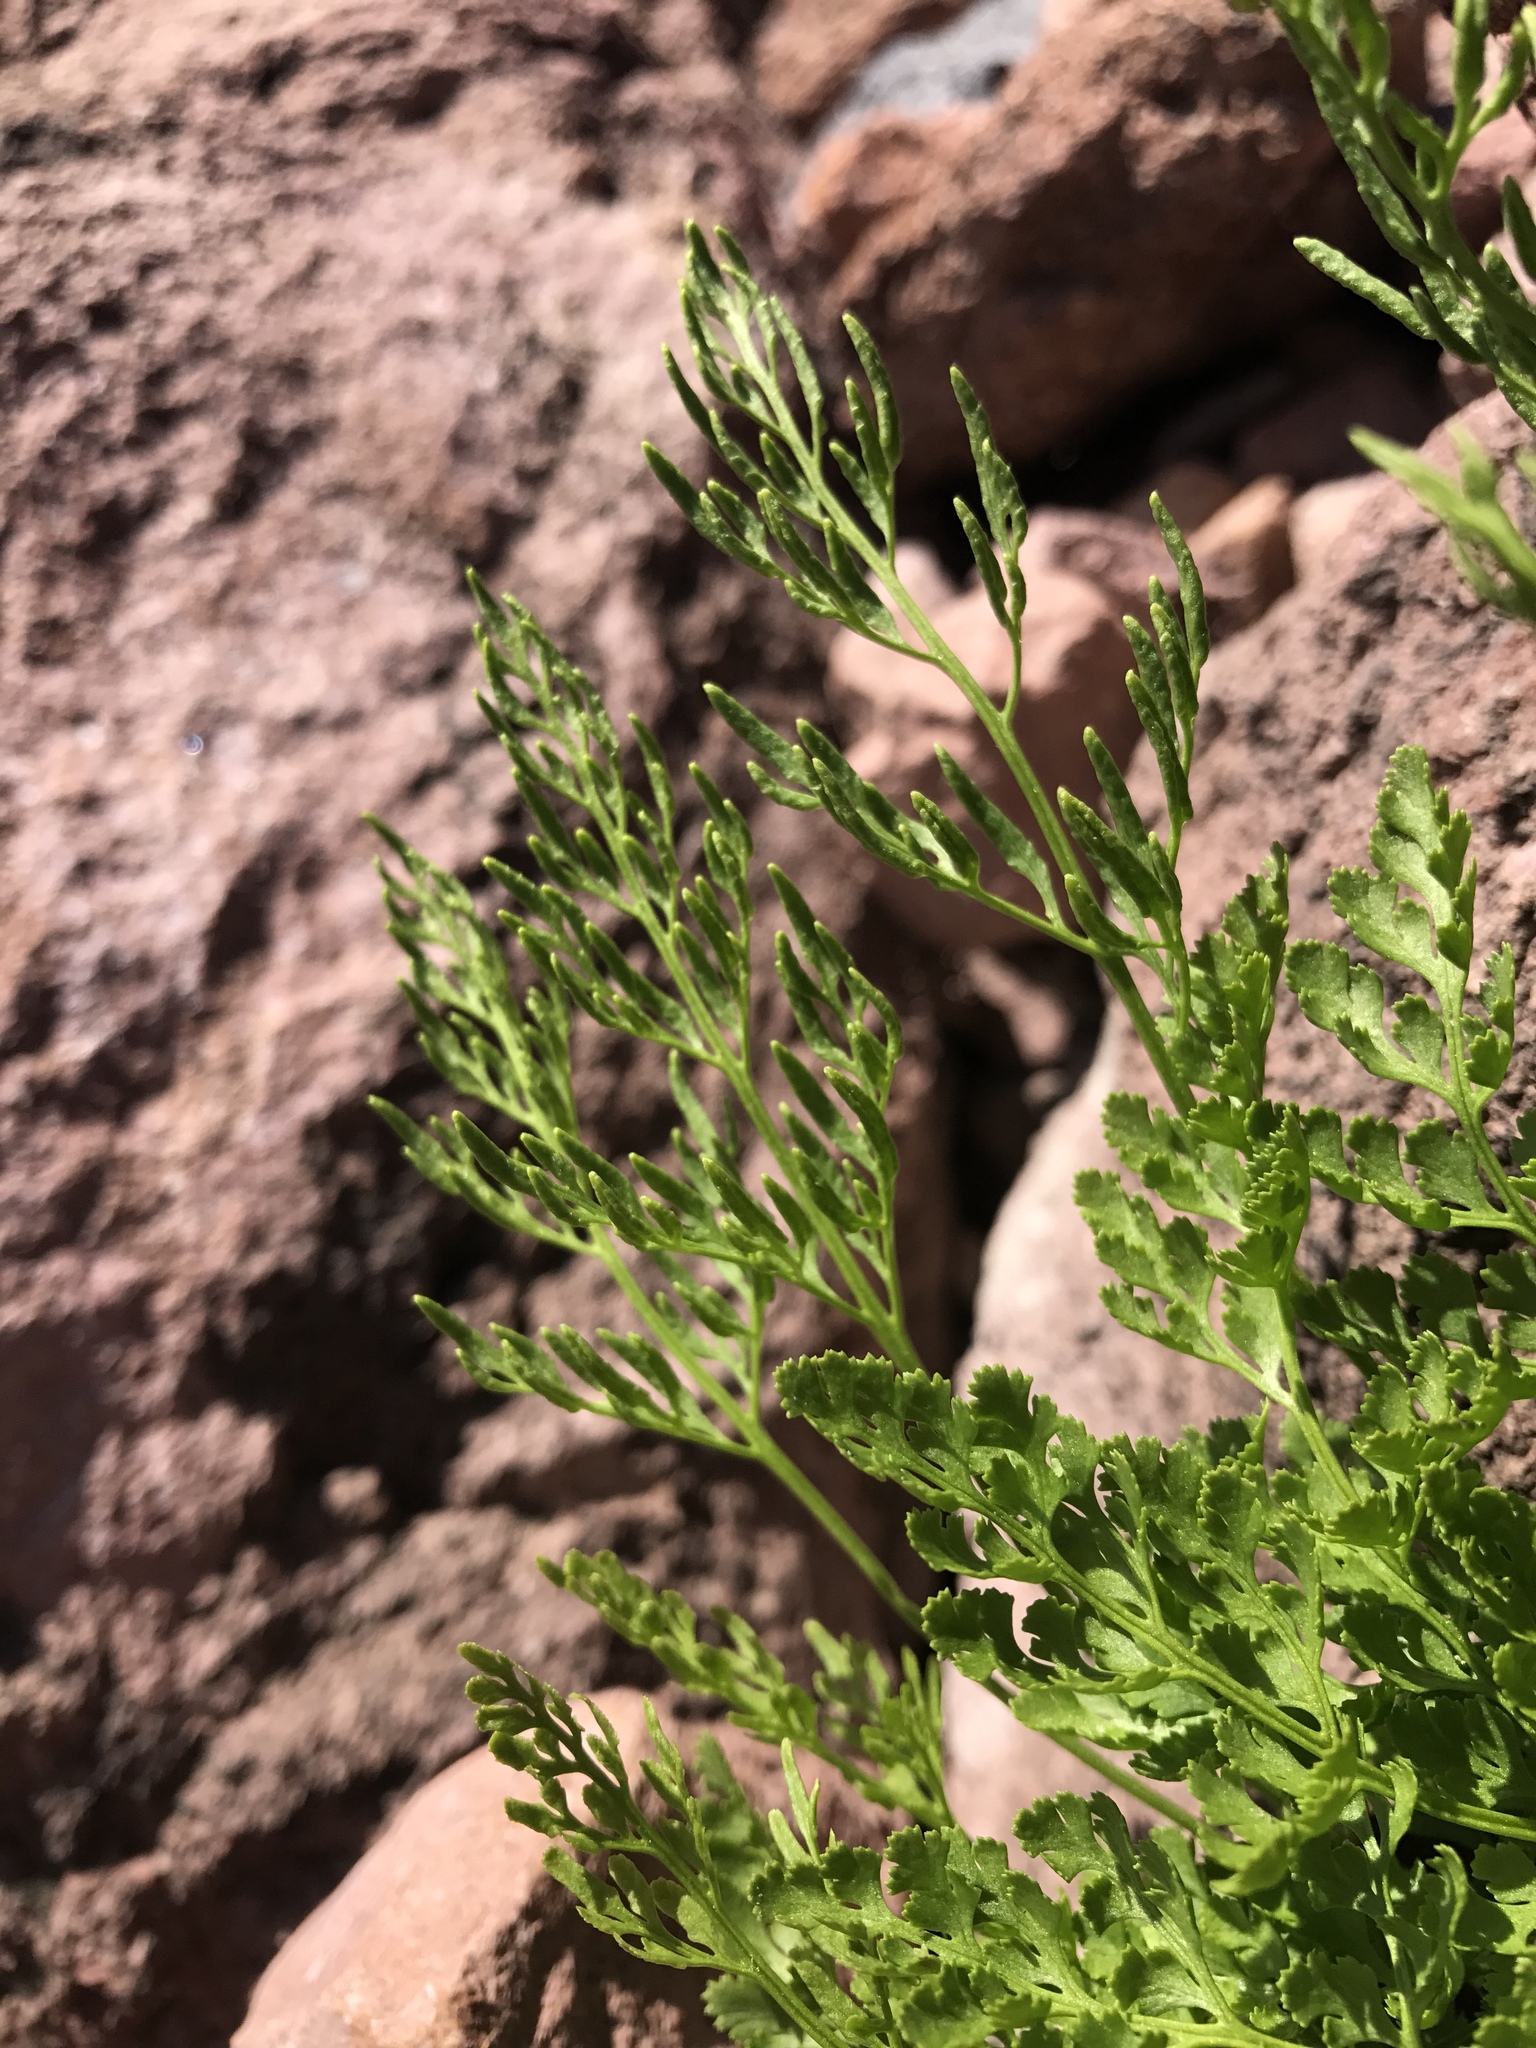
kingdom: Plantae
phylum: Tracheophyta
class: Polypodiopsida
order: Polypodiales
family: Pteridaceae
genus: Cryptogramma
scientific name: Cryptogramma cascadensis
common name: Cascade parsley fern
